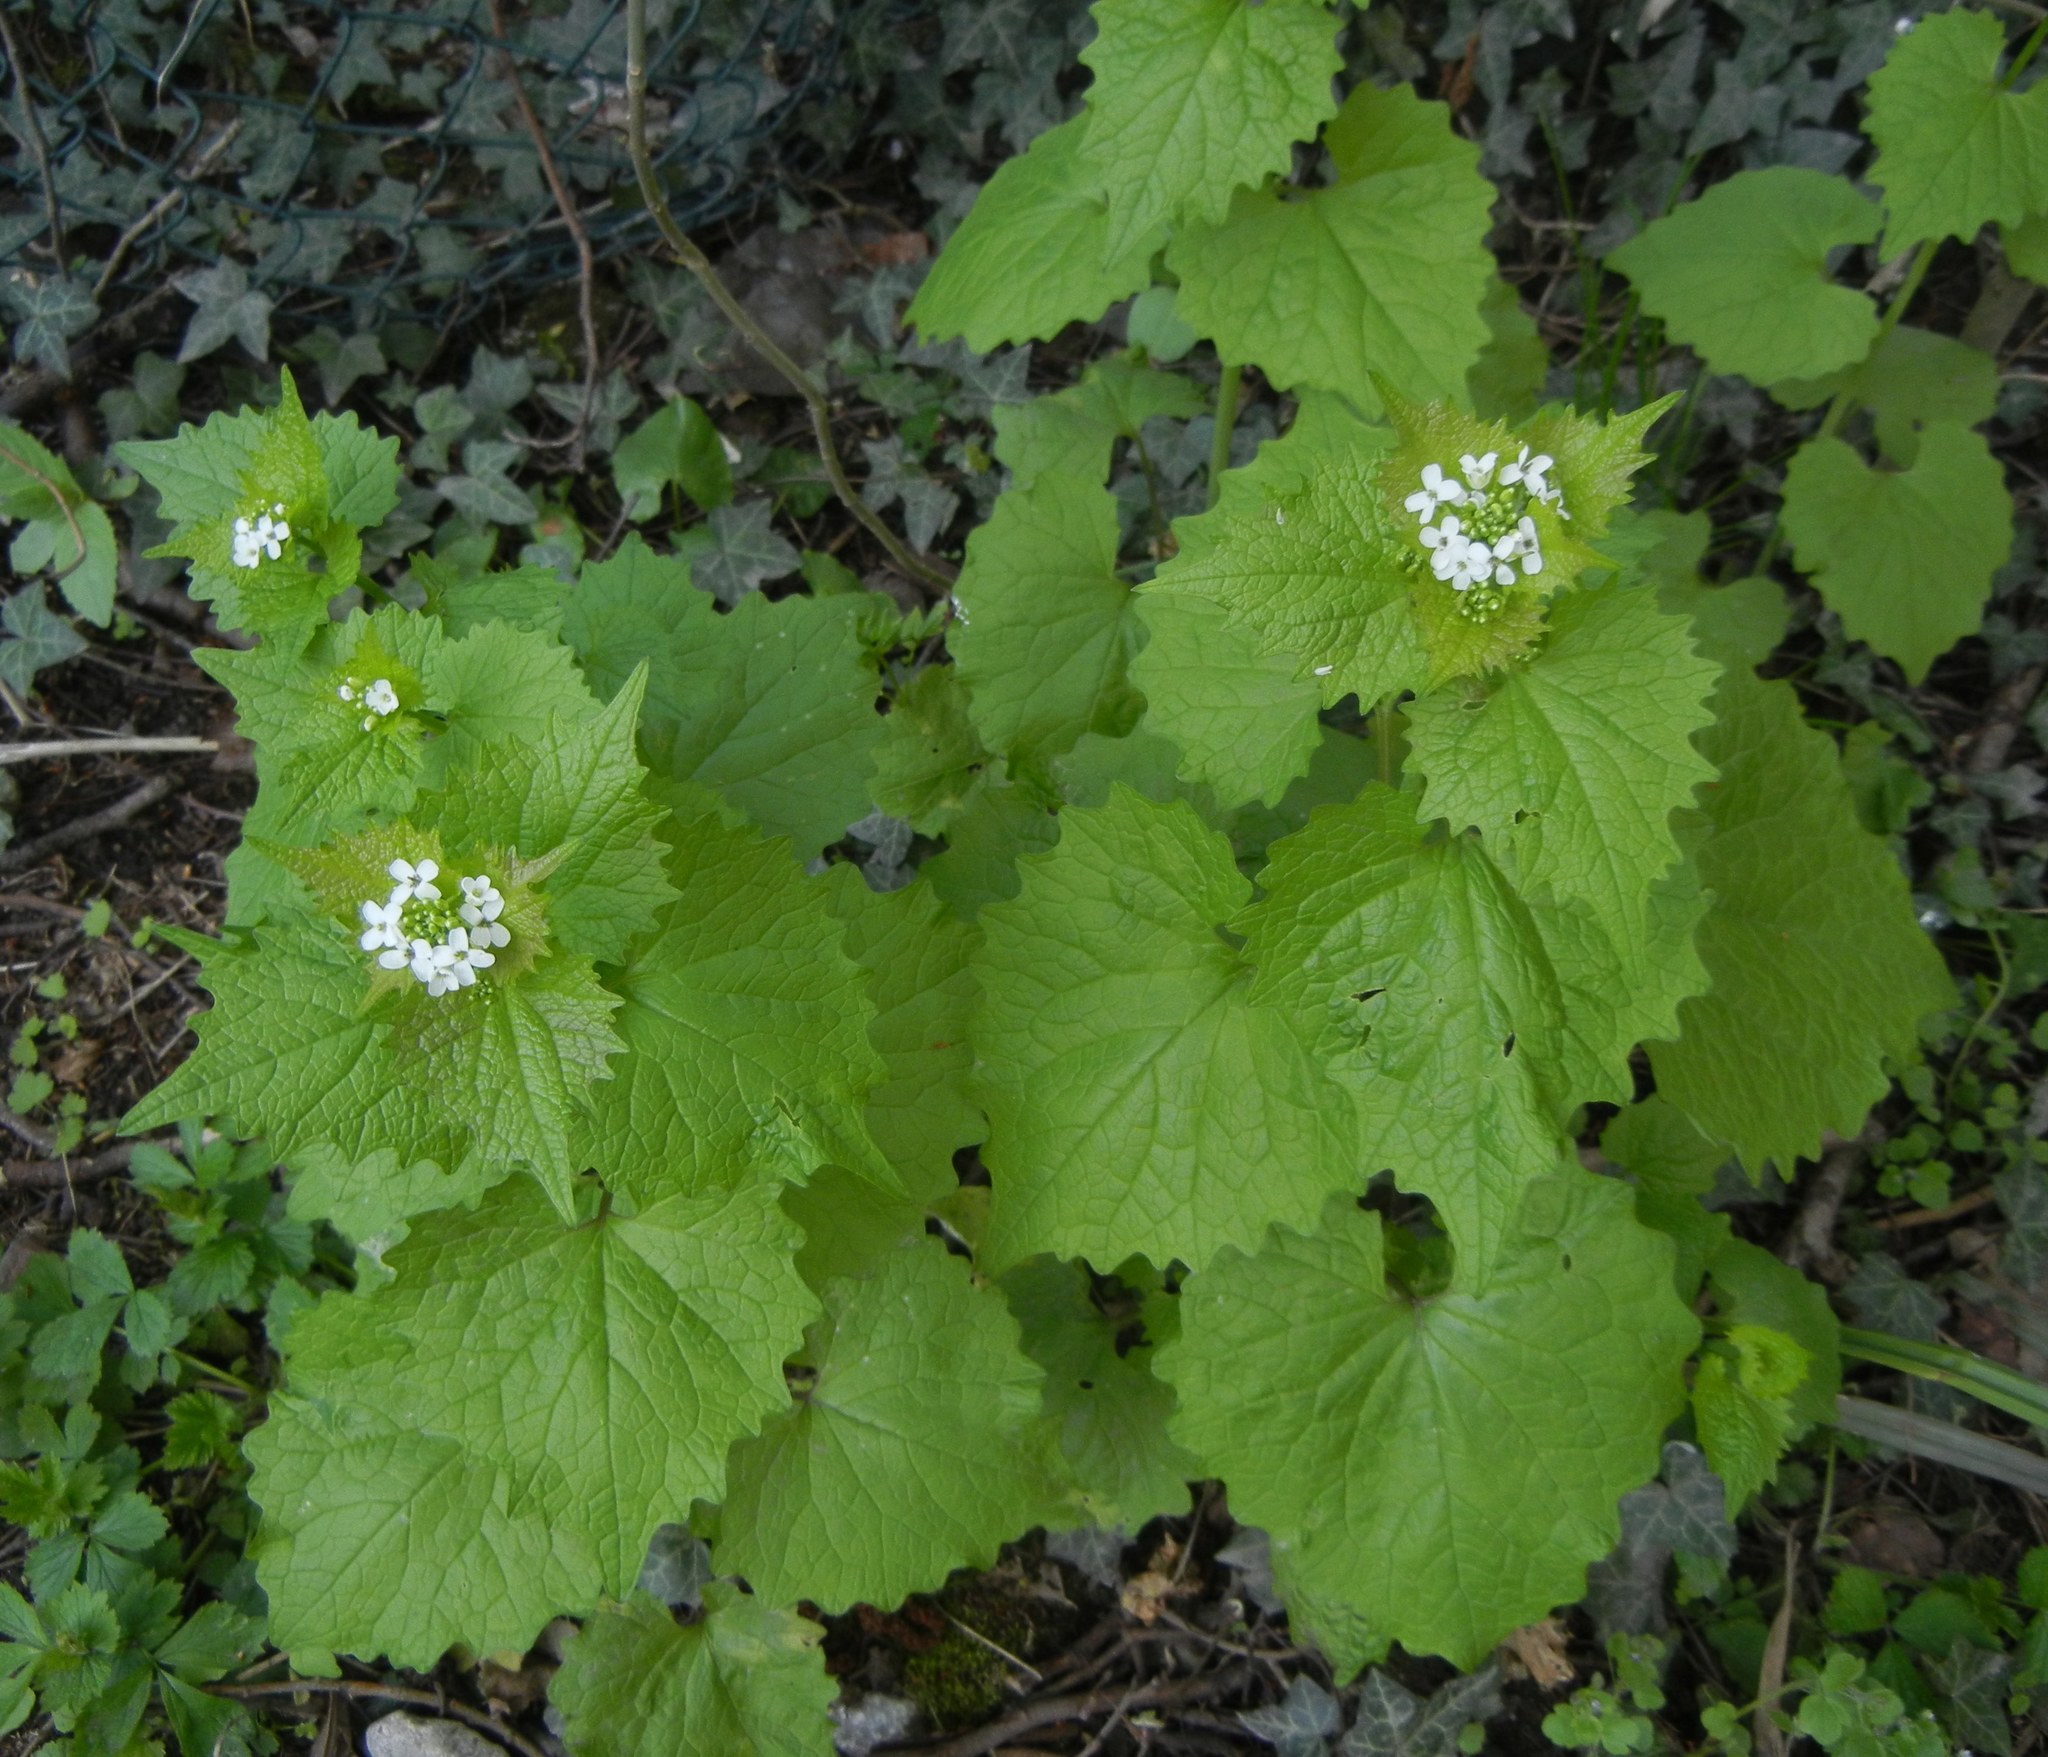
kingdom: Plantae
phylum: Tracheophyta
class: Magnoliopsida
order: Brassicales
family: Brassicaceae
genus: Alliaria
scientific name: Alliaria petiolata
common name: Garlic mustard
